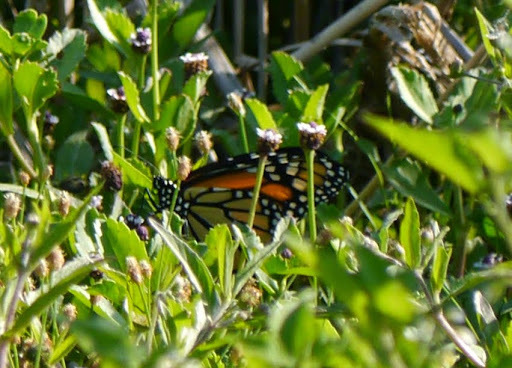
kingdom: Animalia
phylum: Arthropoda
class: Insecta
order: Lepidoptera
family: Nymphalidae
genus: Danaus
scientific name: Danaus plexippus
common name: Monarch
